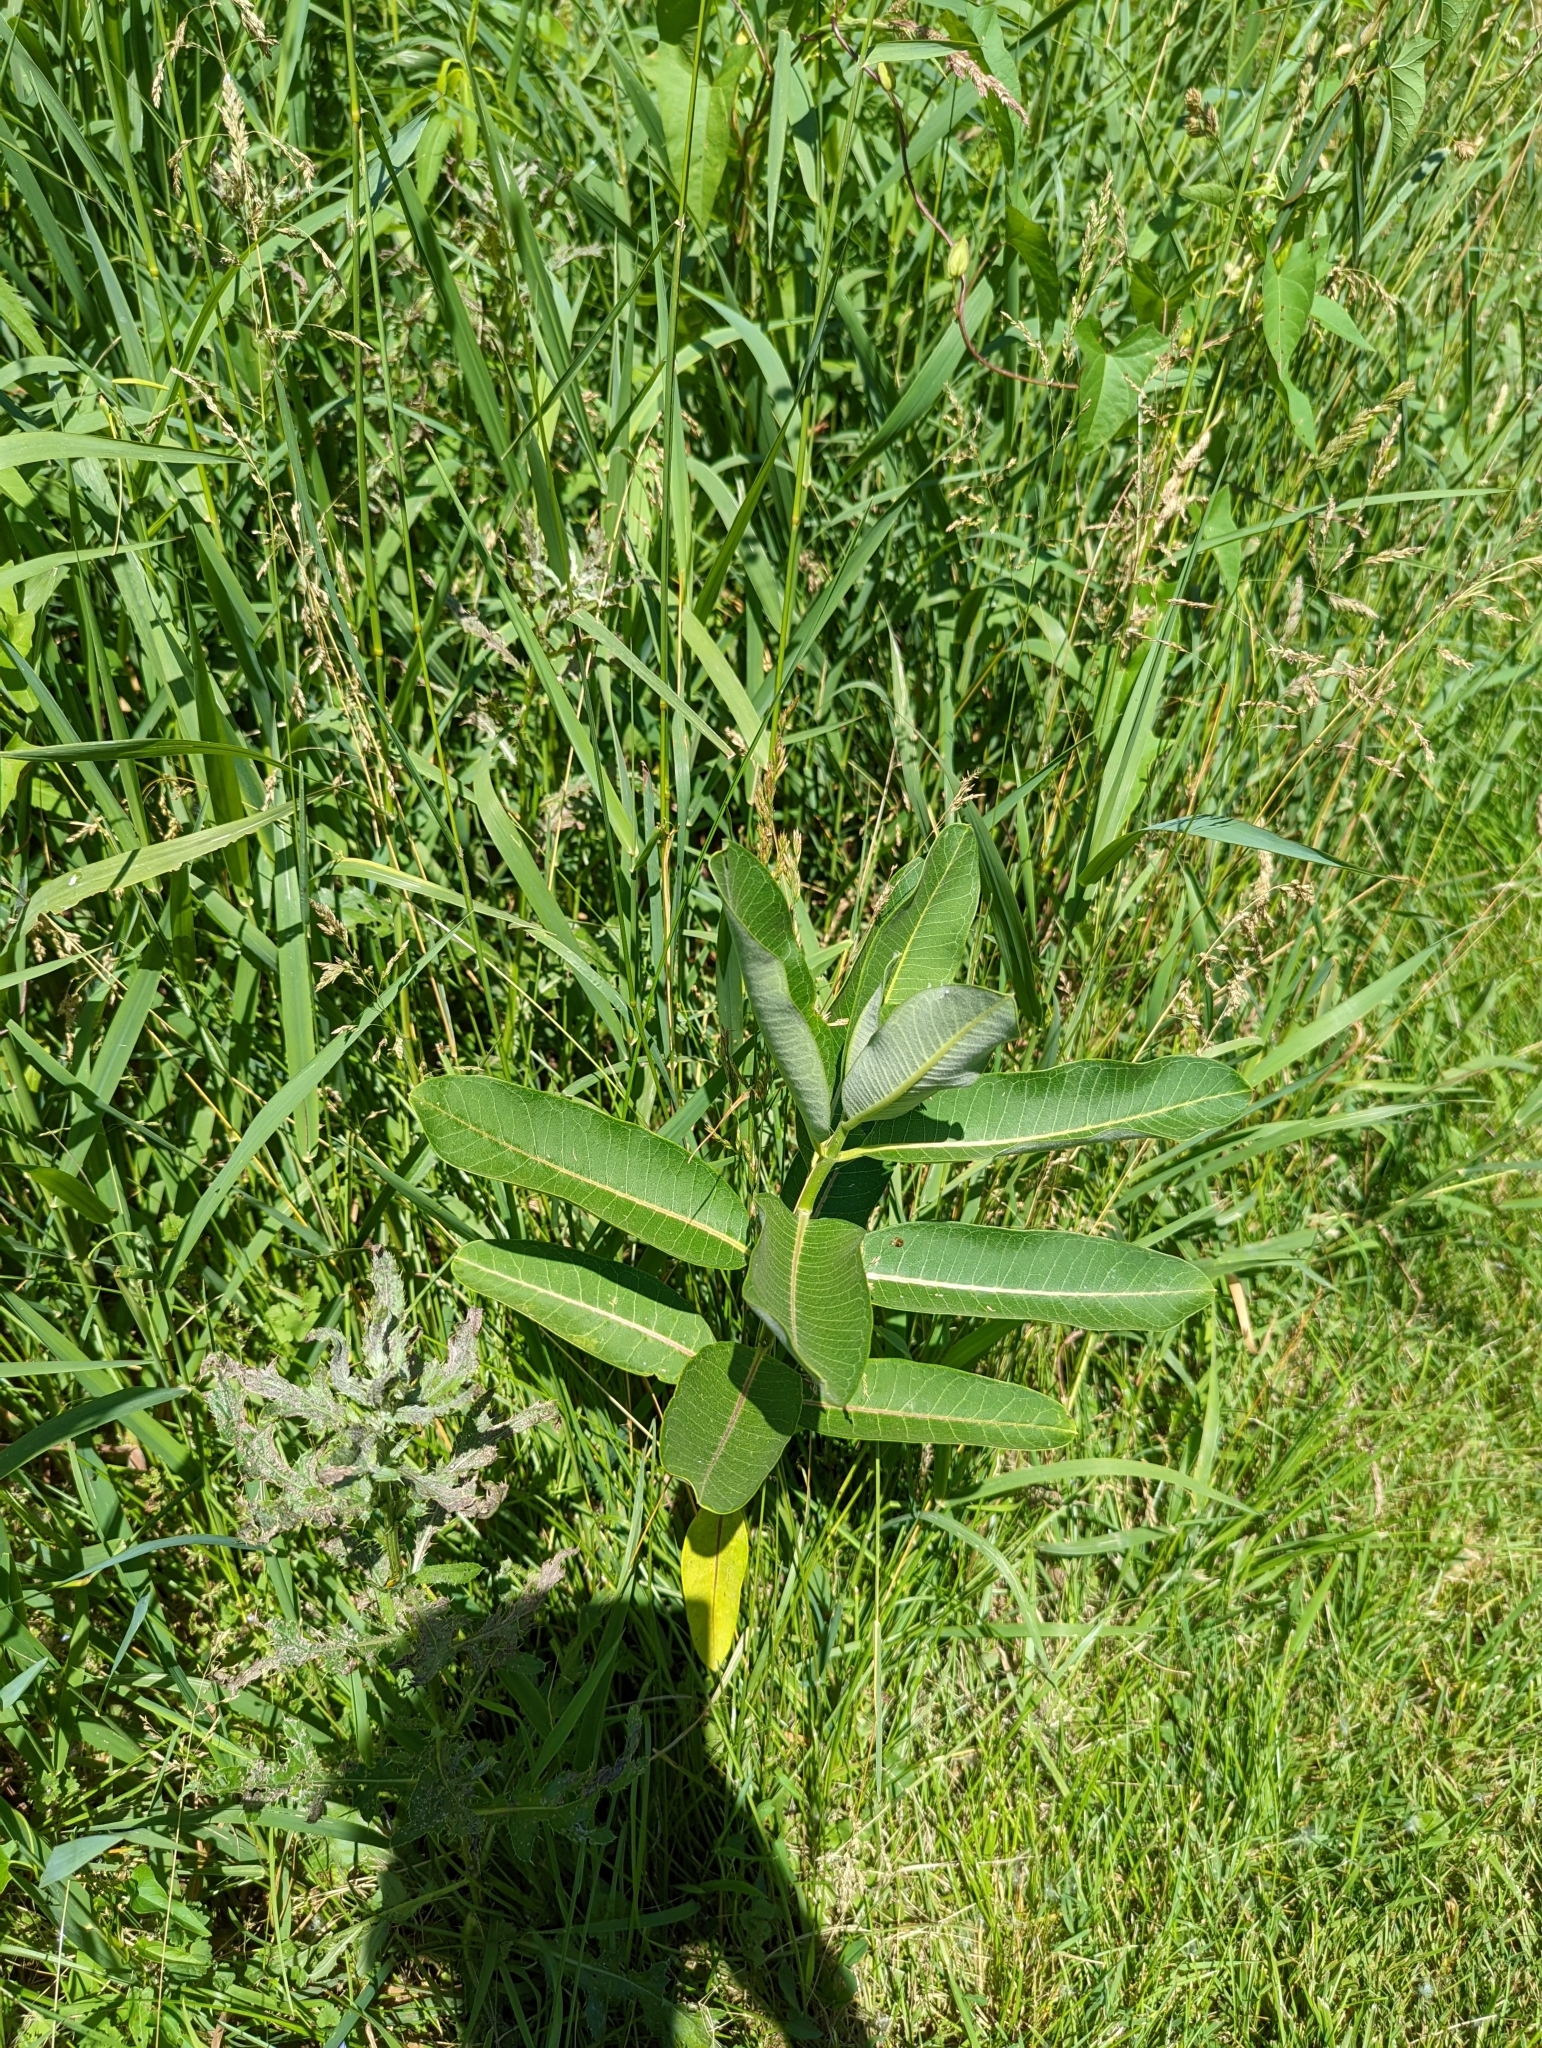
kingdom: Plantae
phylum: Tracheophyta
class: Magnoliopsida
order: Gentianales
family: Apocynaceae
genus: Asclepias
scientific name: Asclepias syriaca
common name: Common milkweed
